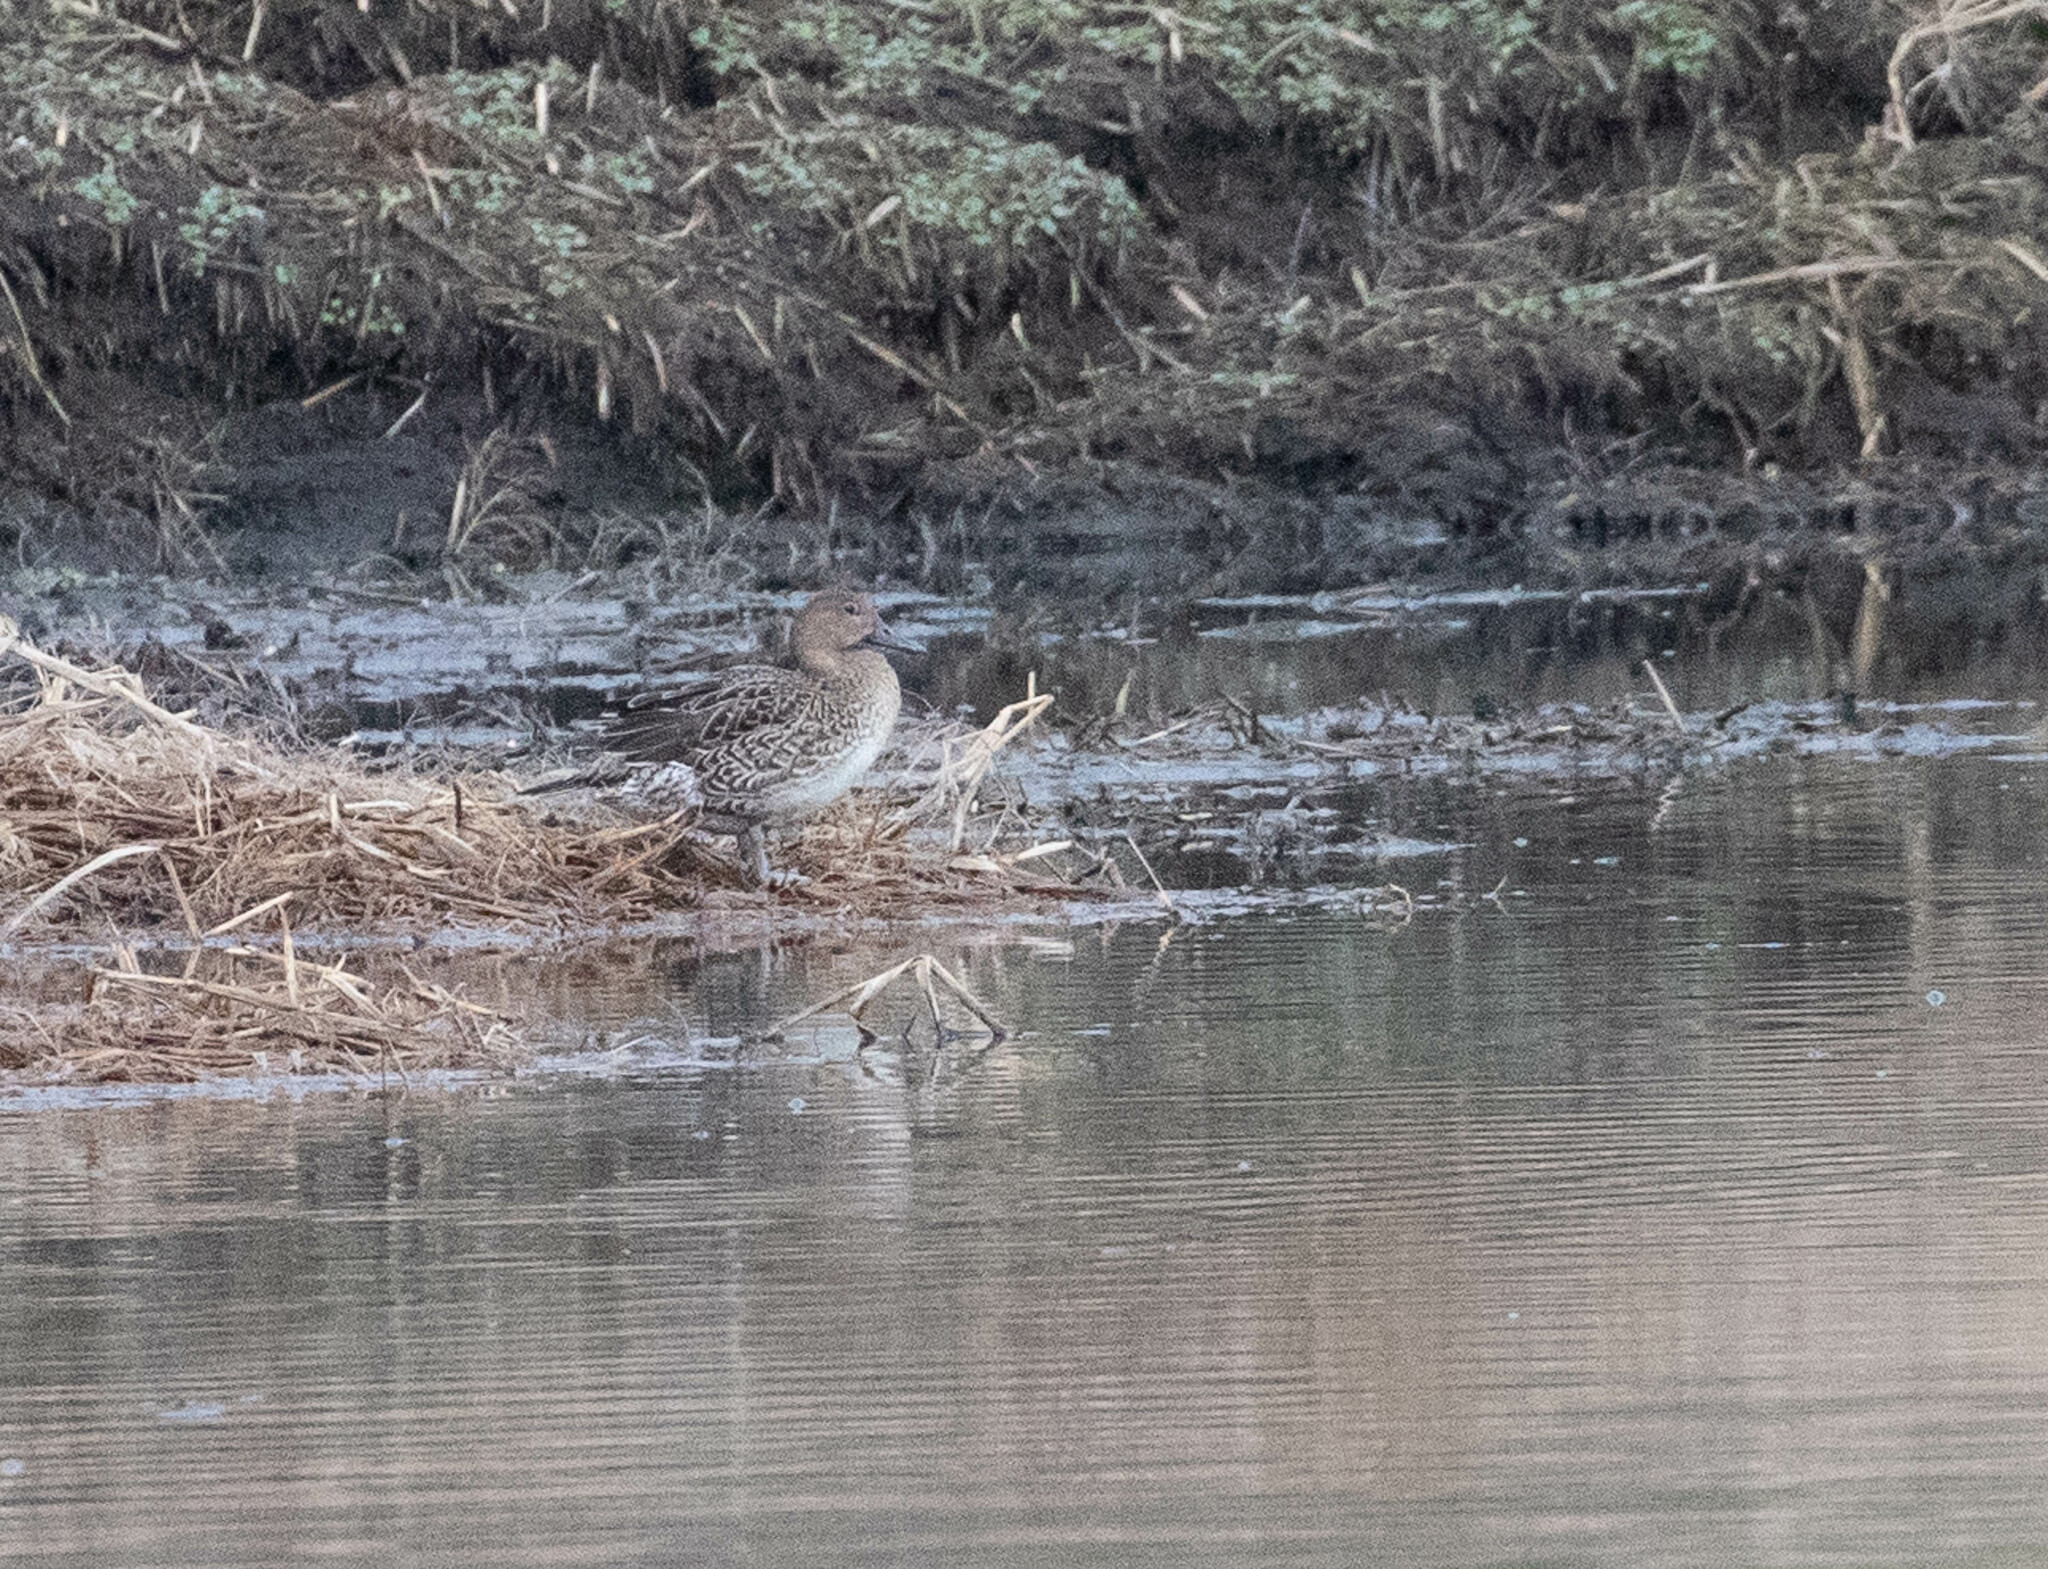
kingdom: Animalia
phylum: Chordata
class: Aves
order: Anseriformes
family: Anatidae
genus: Anas
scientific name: Anas acuta
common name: Northern pintail
